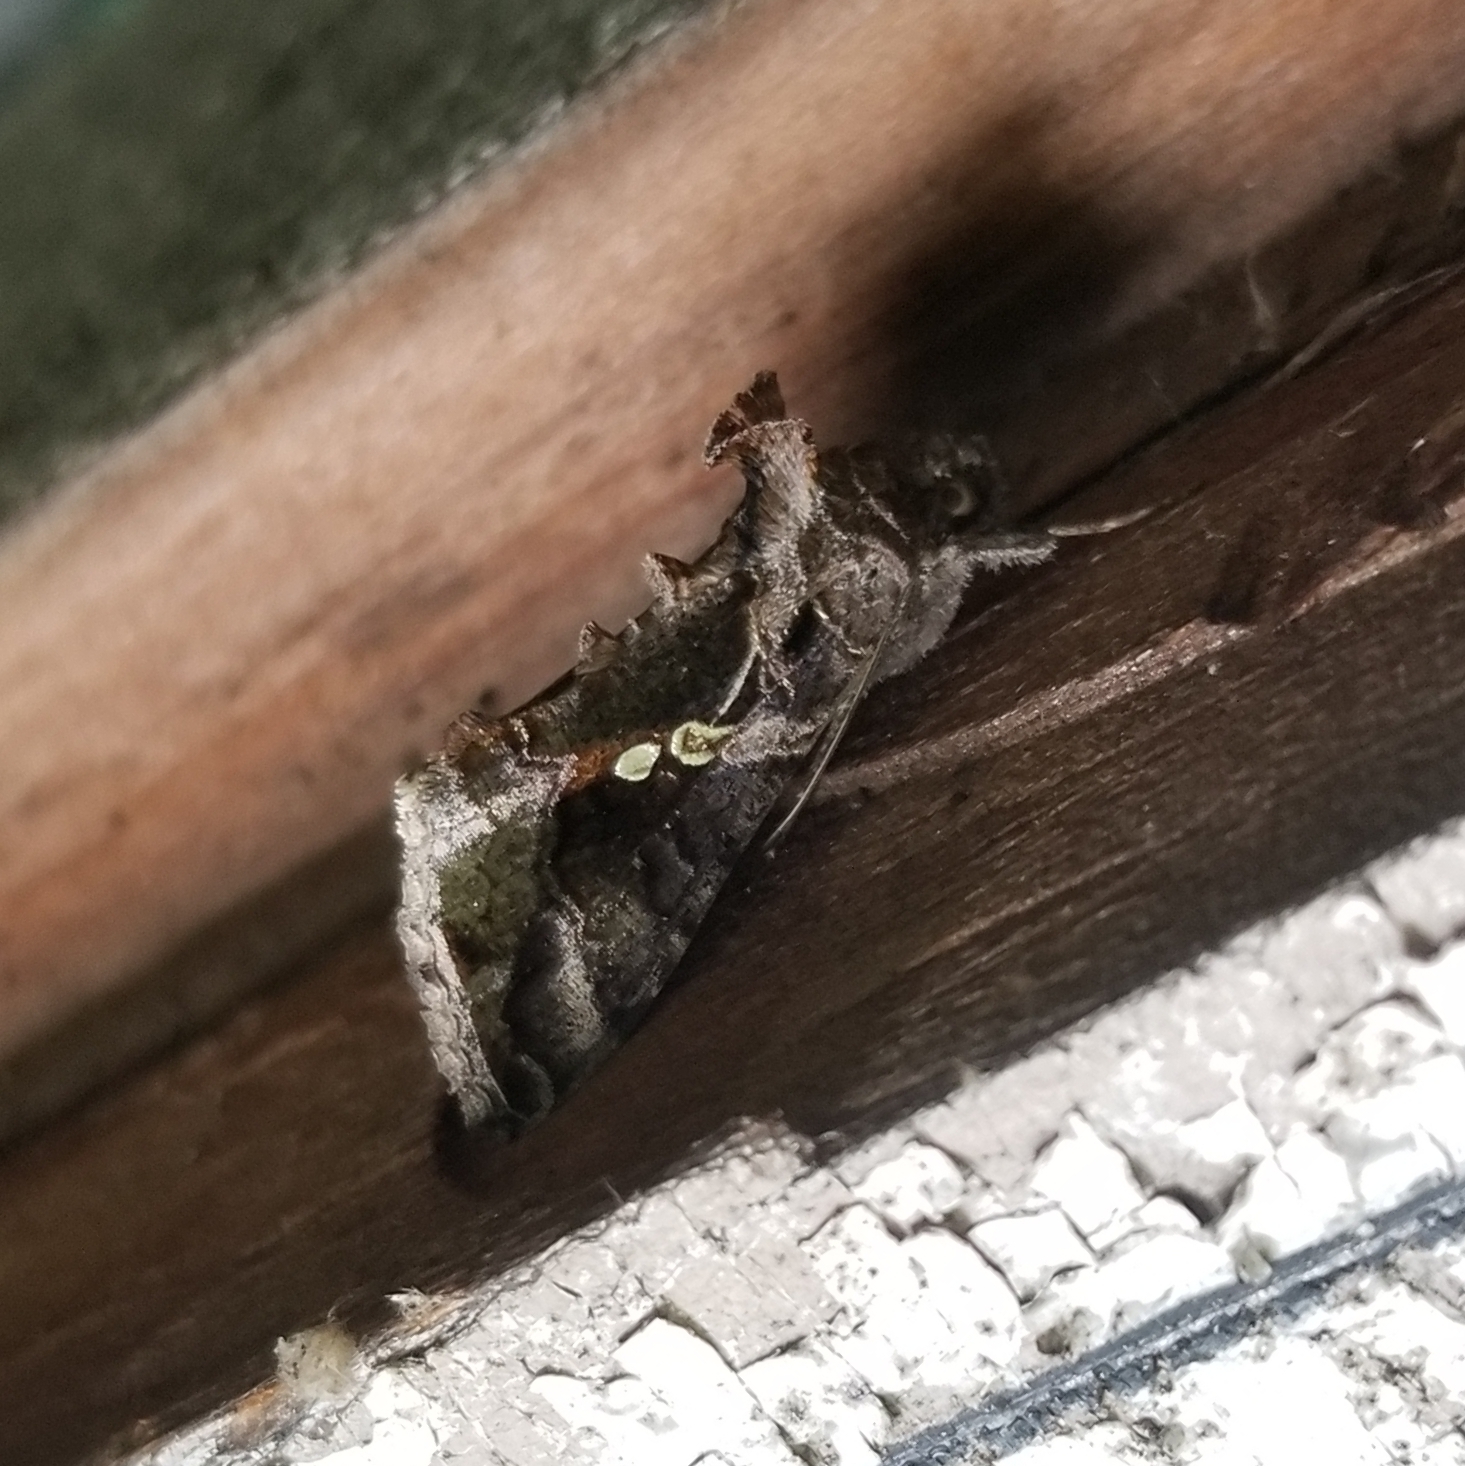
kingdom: Animalia
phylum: Arthropoda
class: Insecta
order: Lepidoptera
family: Noctuidae
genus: Chrysodeixis
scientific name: Chrysodeixis includens
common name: Cutworm moth
